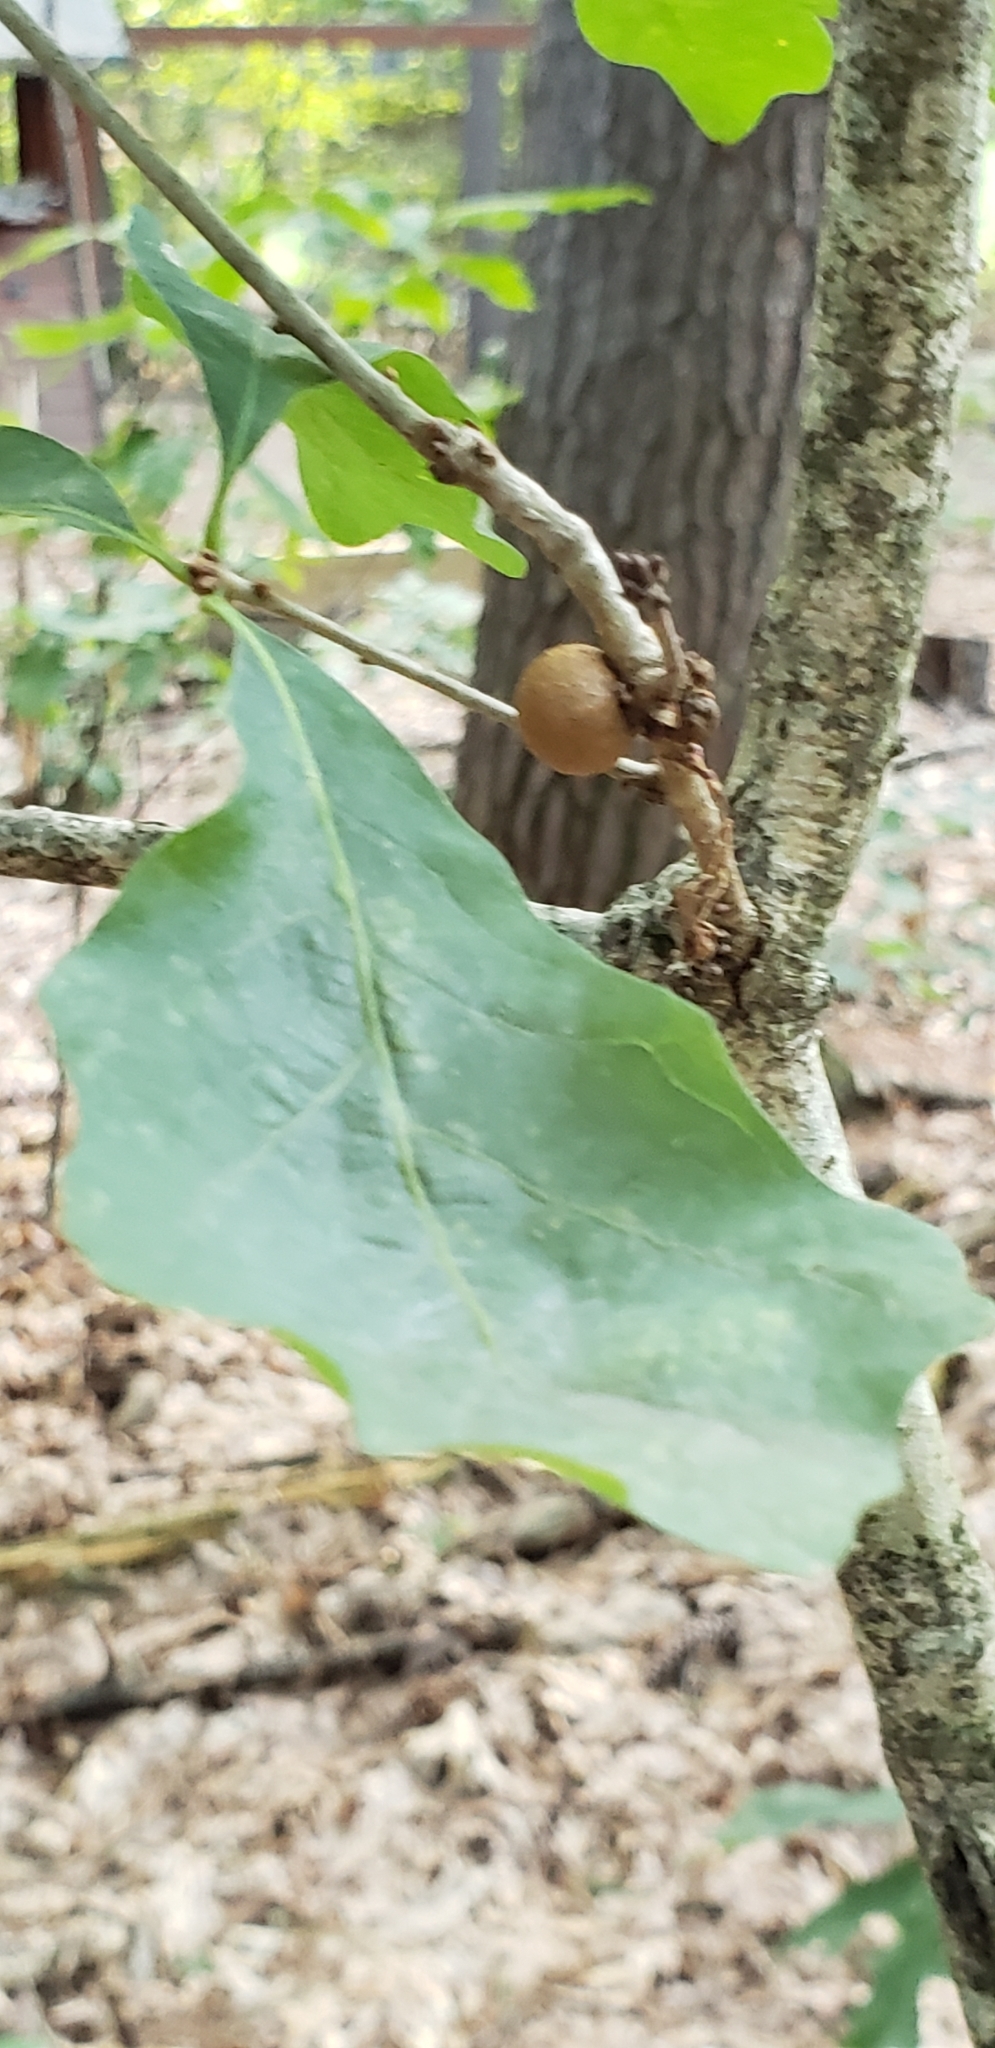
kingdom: Animalia
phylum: Arthropoda
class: Insecta
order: Hymenoptera
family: Cynipidae
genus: Disholcaspis
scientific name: Disholcaspis quercusglobulus
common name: Round bullet gall wasp
